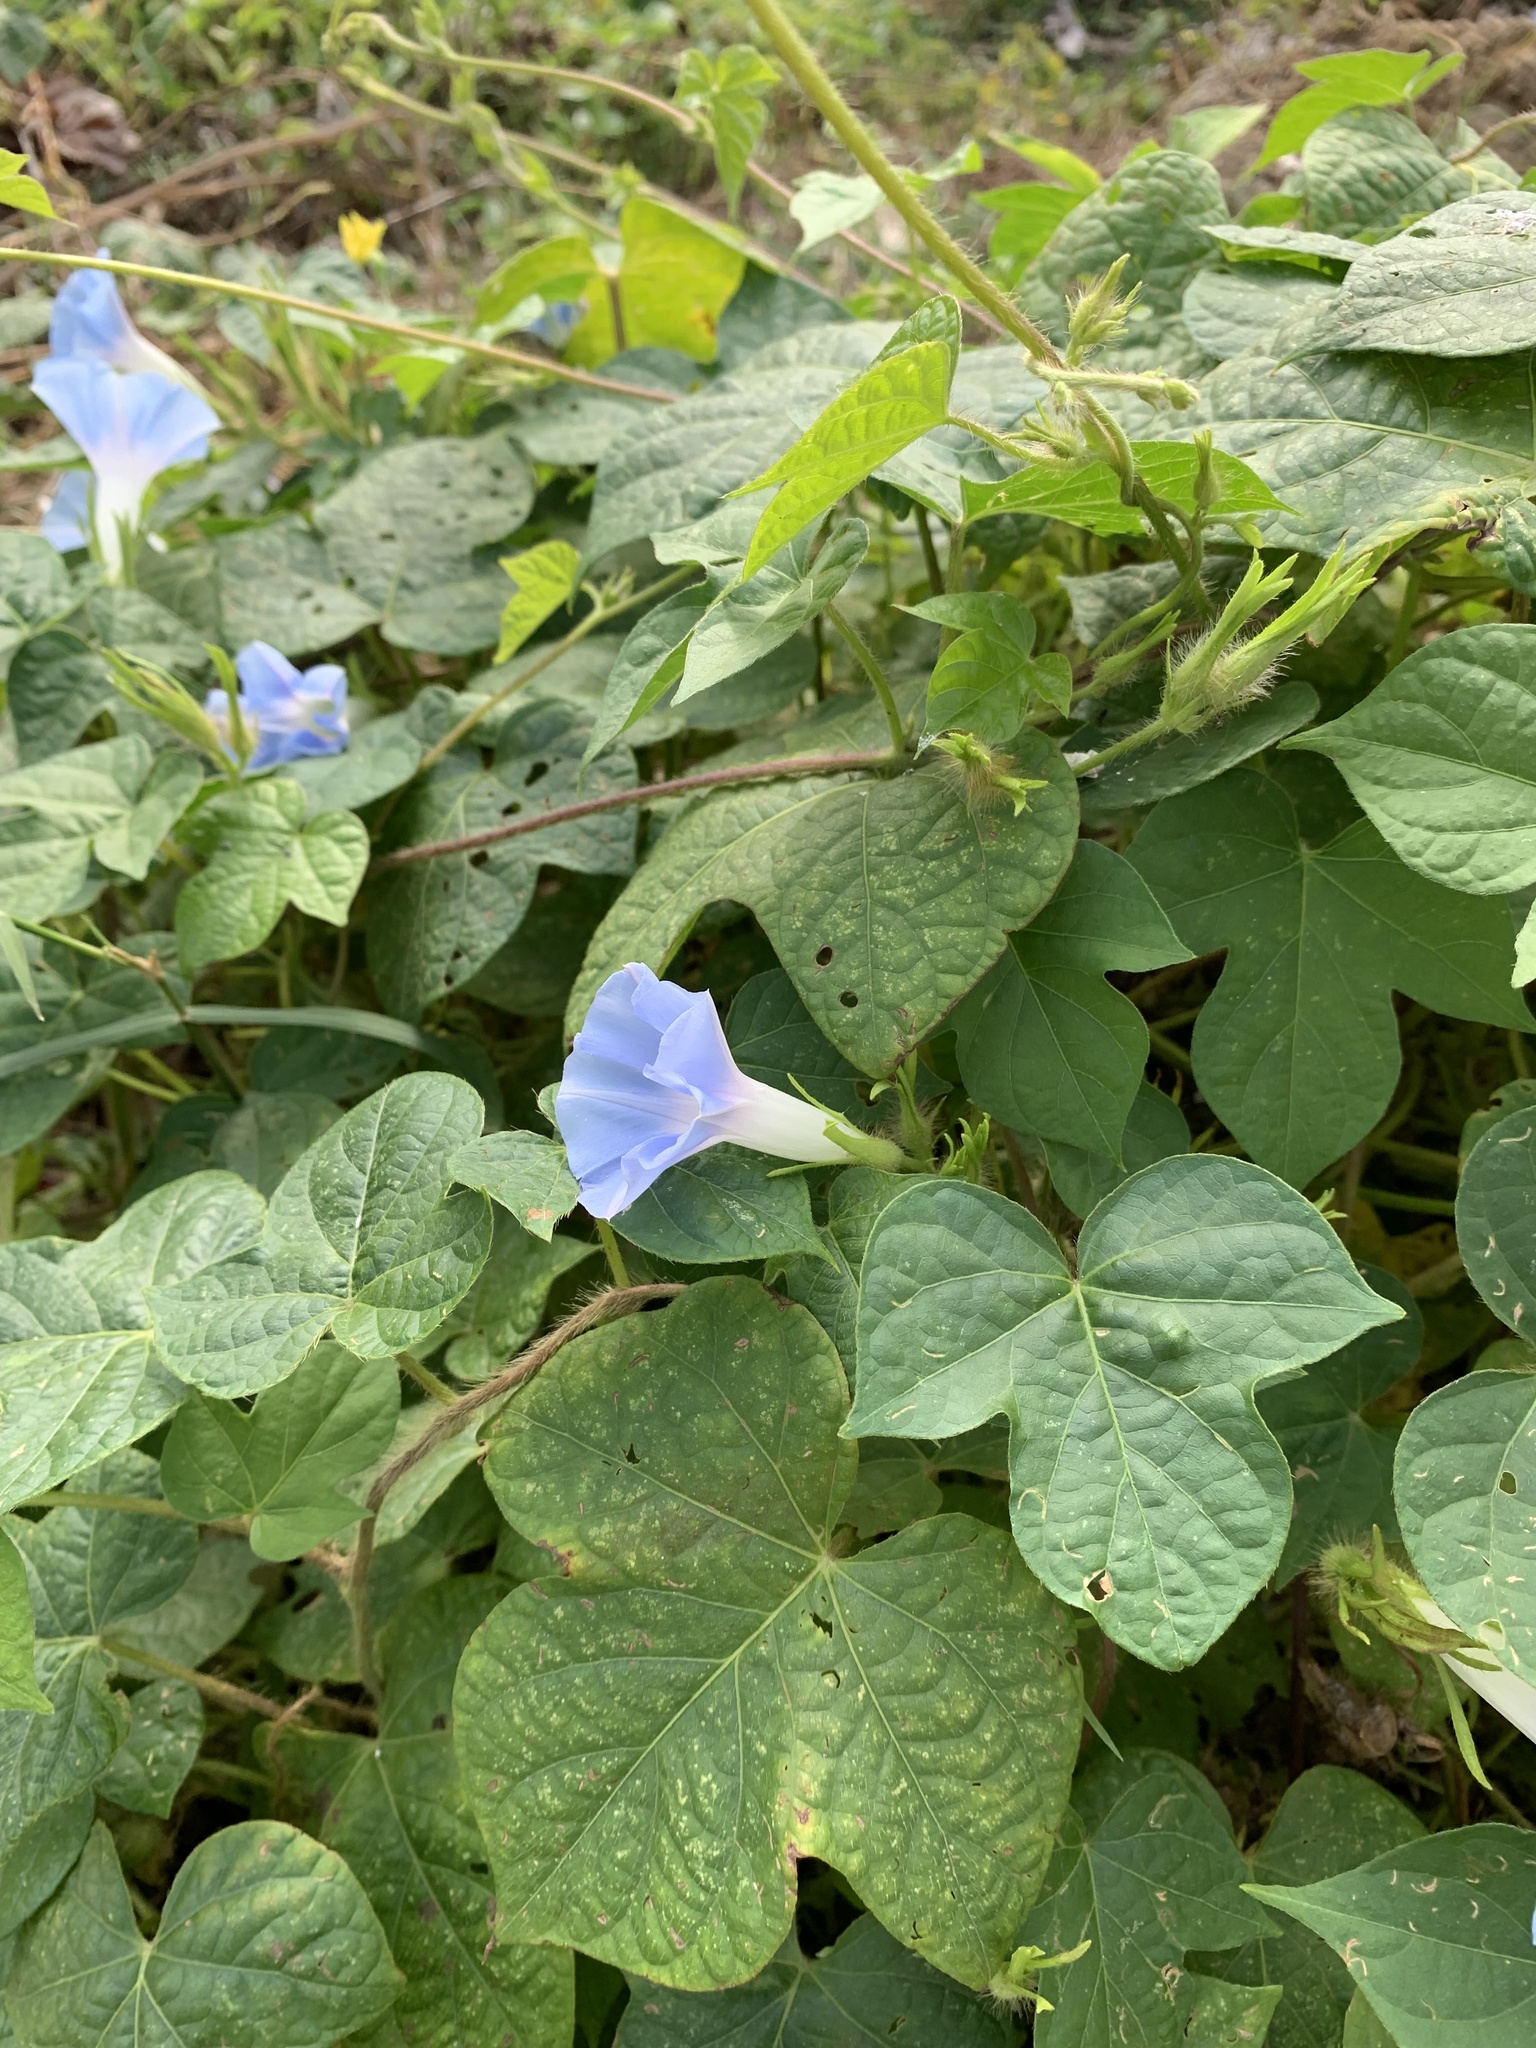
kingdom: Plantae
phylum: Tracheophyta
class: Magnoliopsida
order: Solanales
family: Convolvulaceae
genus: Ipomoea
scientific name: Ipomoea nil
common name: Japanese morning-glory
